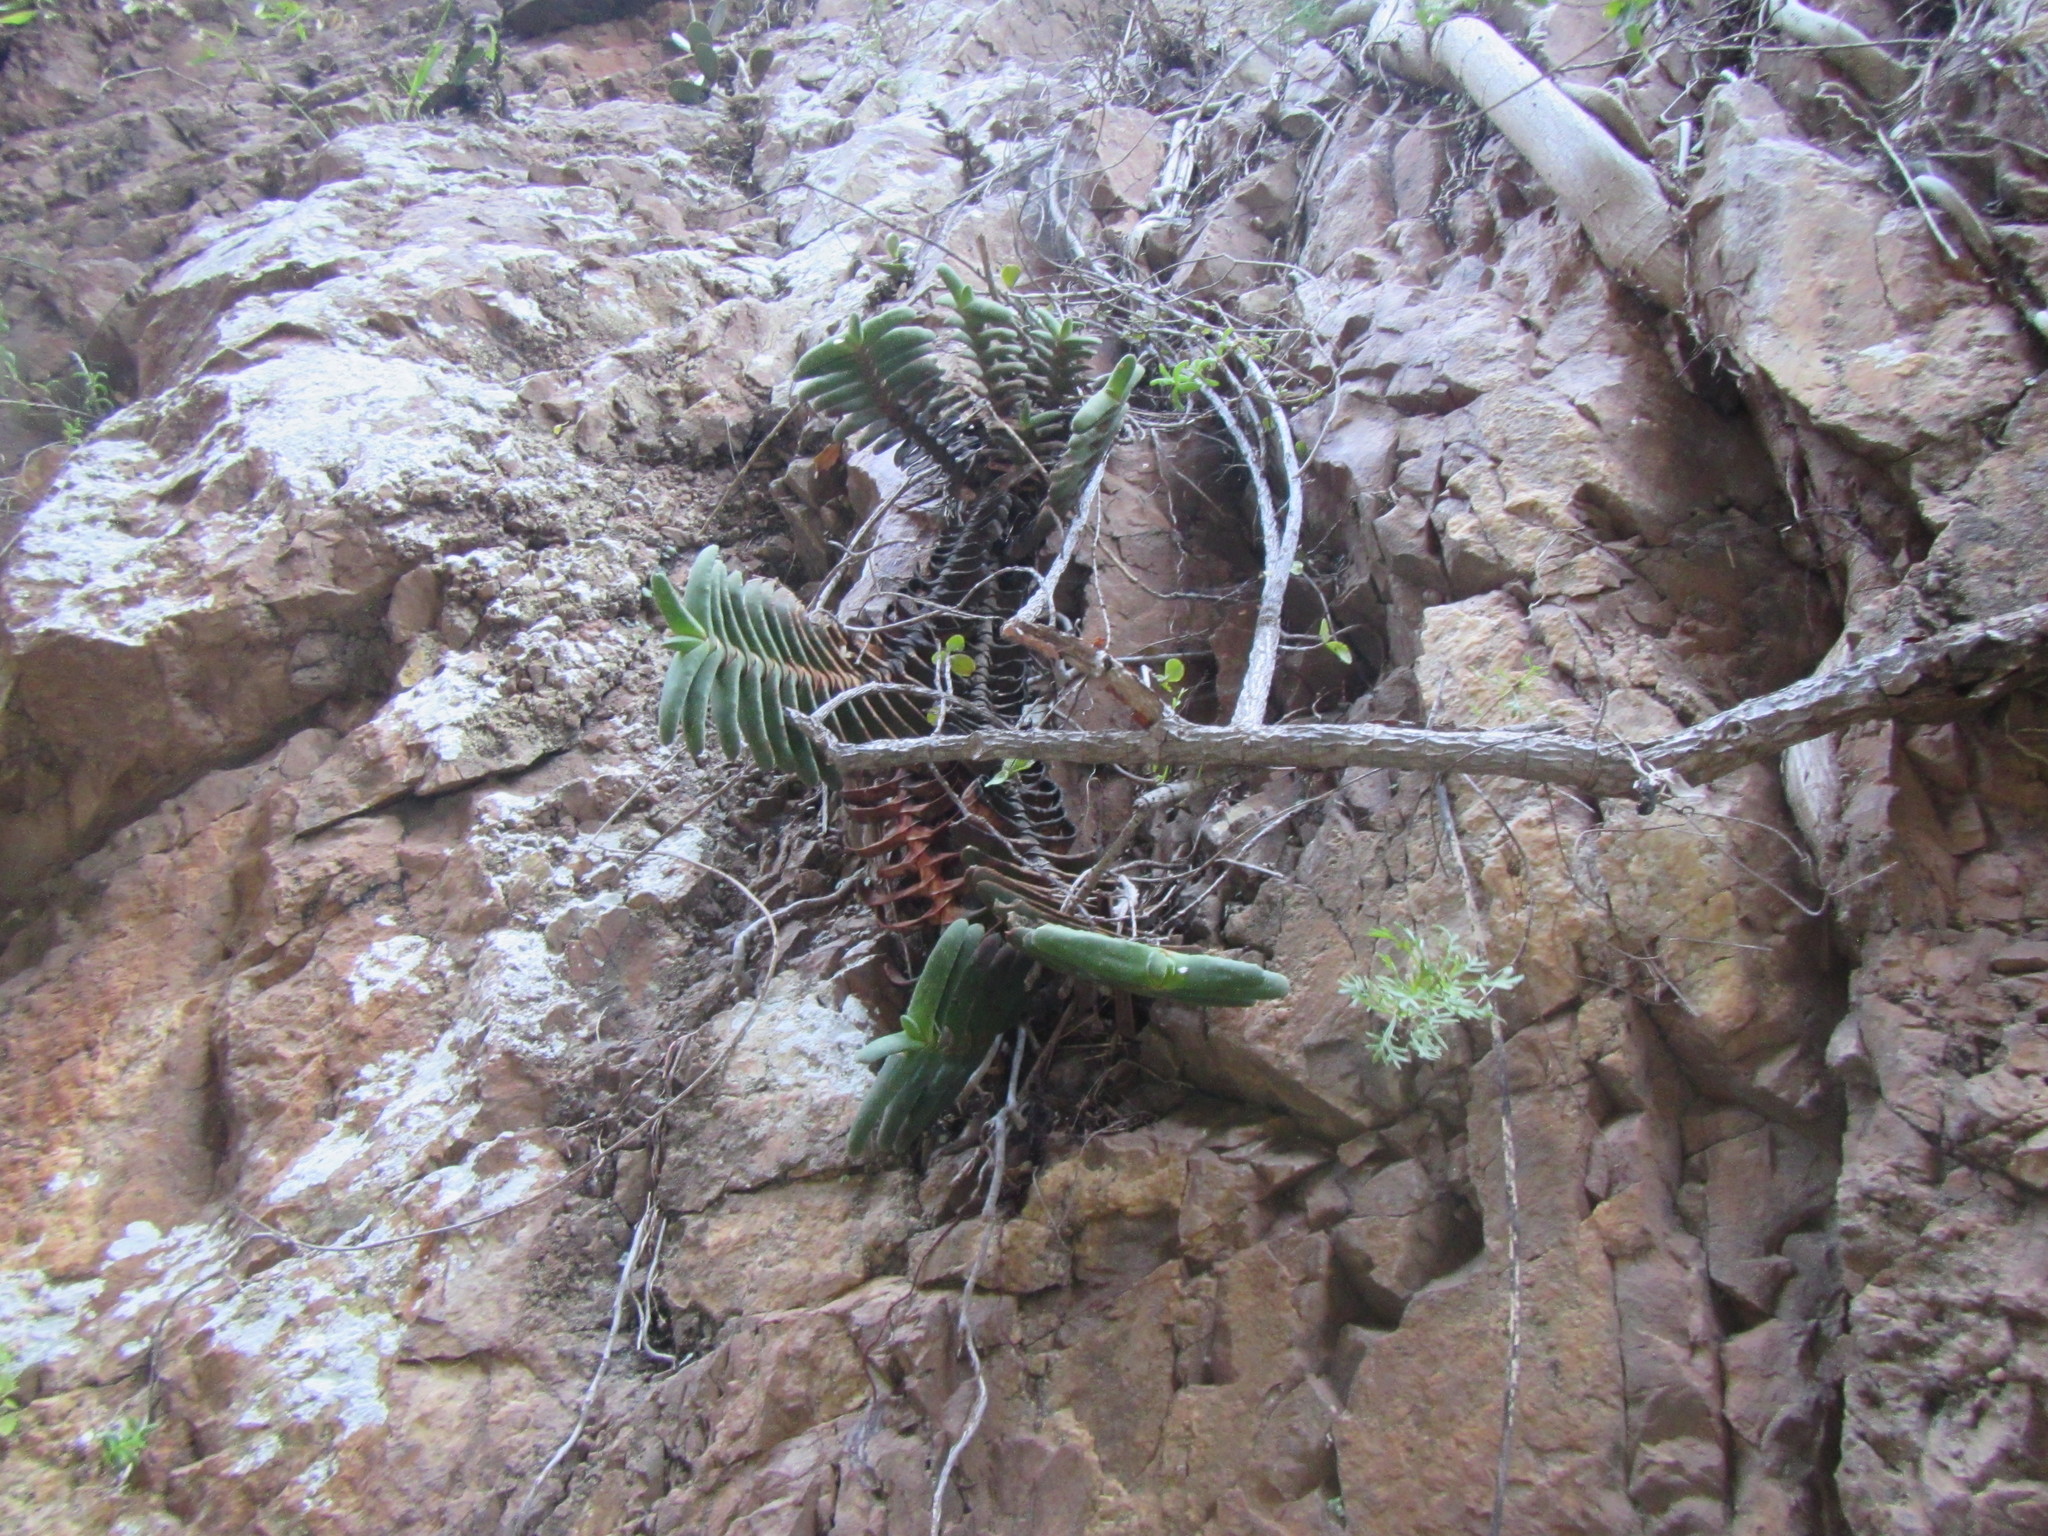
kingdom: Plantae
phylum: Tracheophyta
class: Liliopsida
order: Asparagales
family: Asphodelaceae
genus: Gasteria
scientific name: Gasteria rawlinsonii
